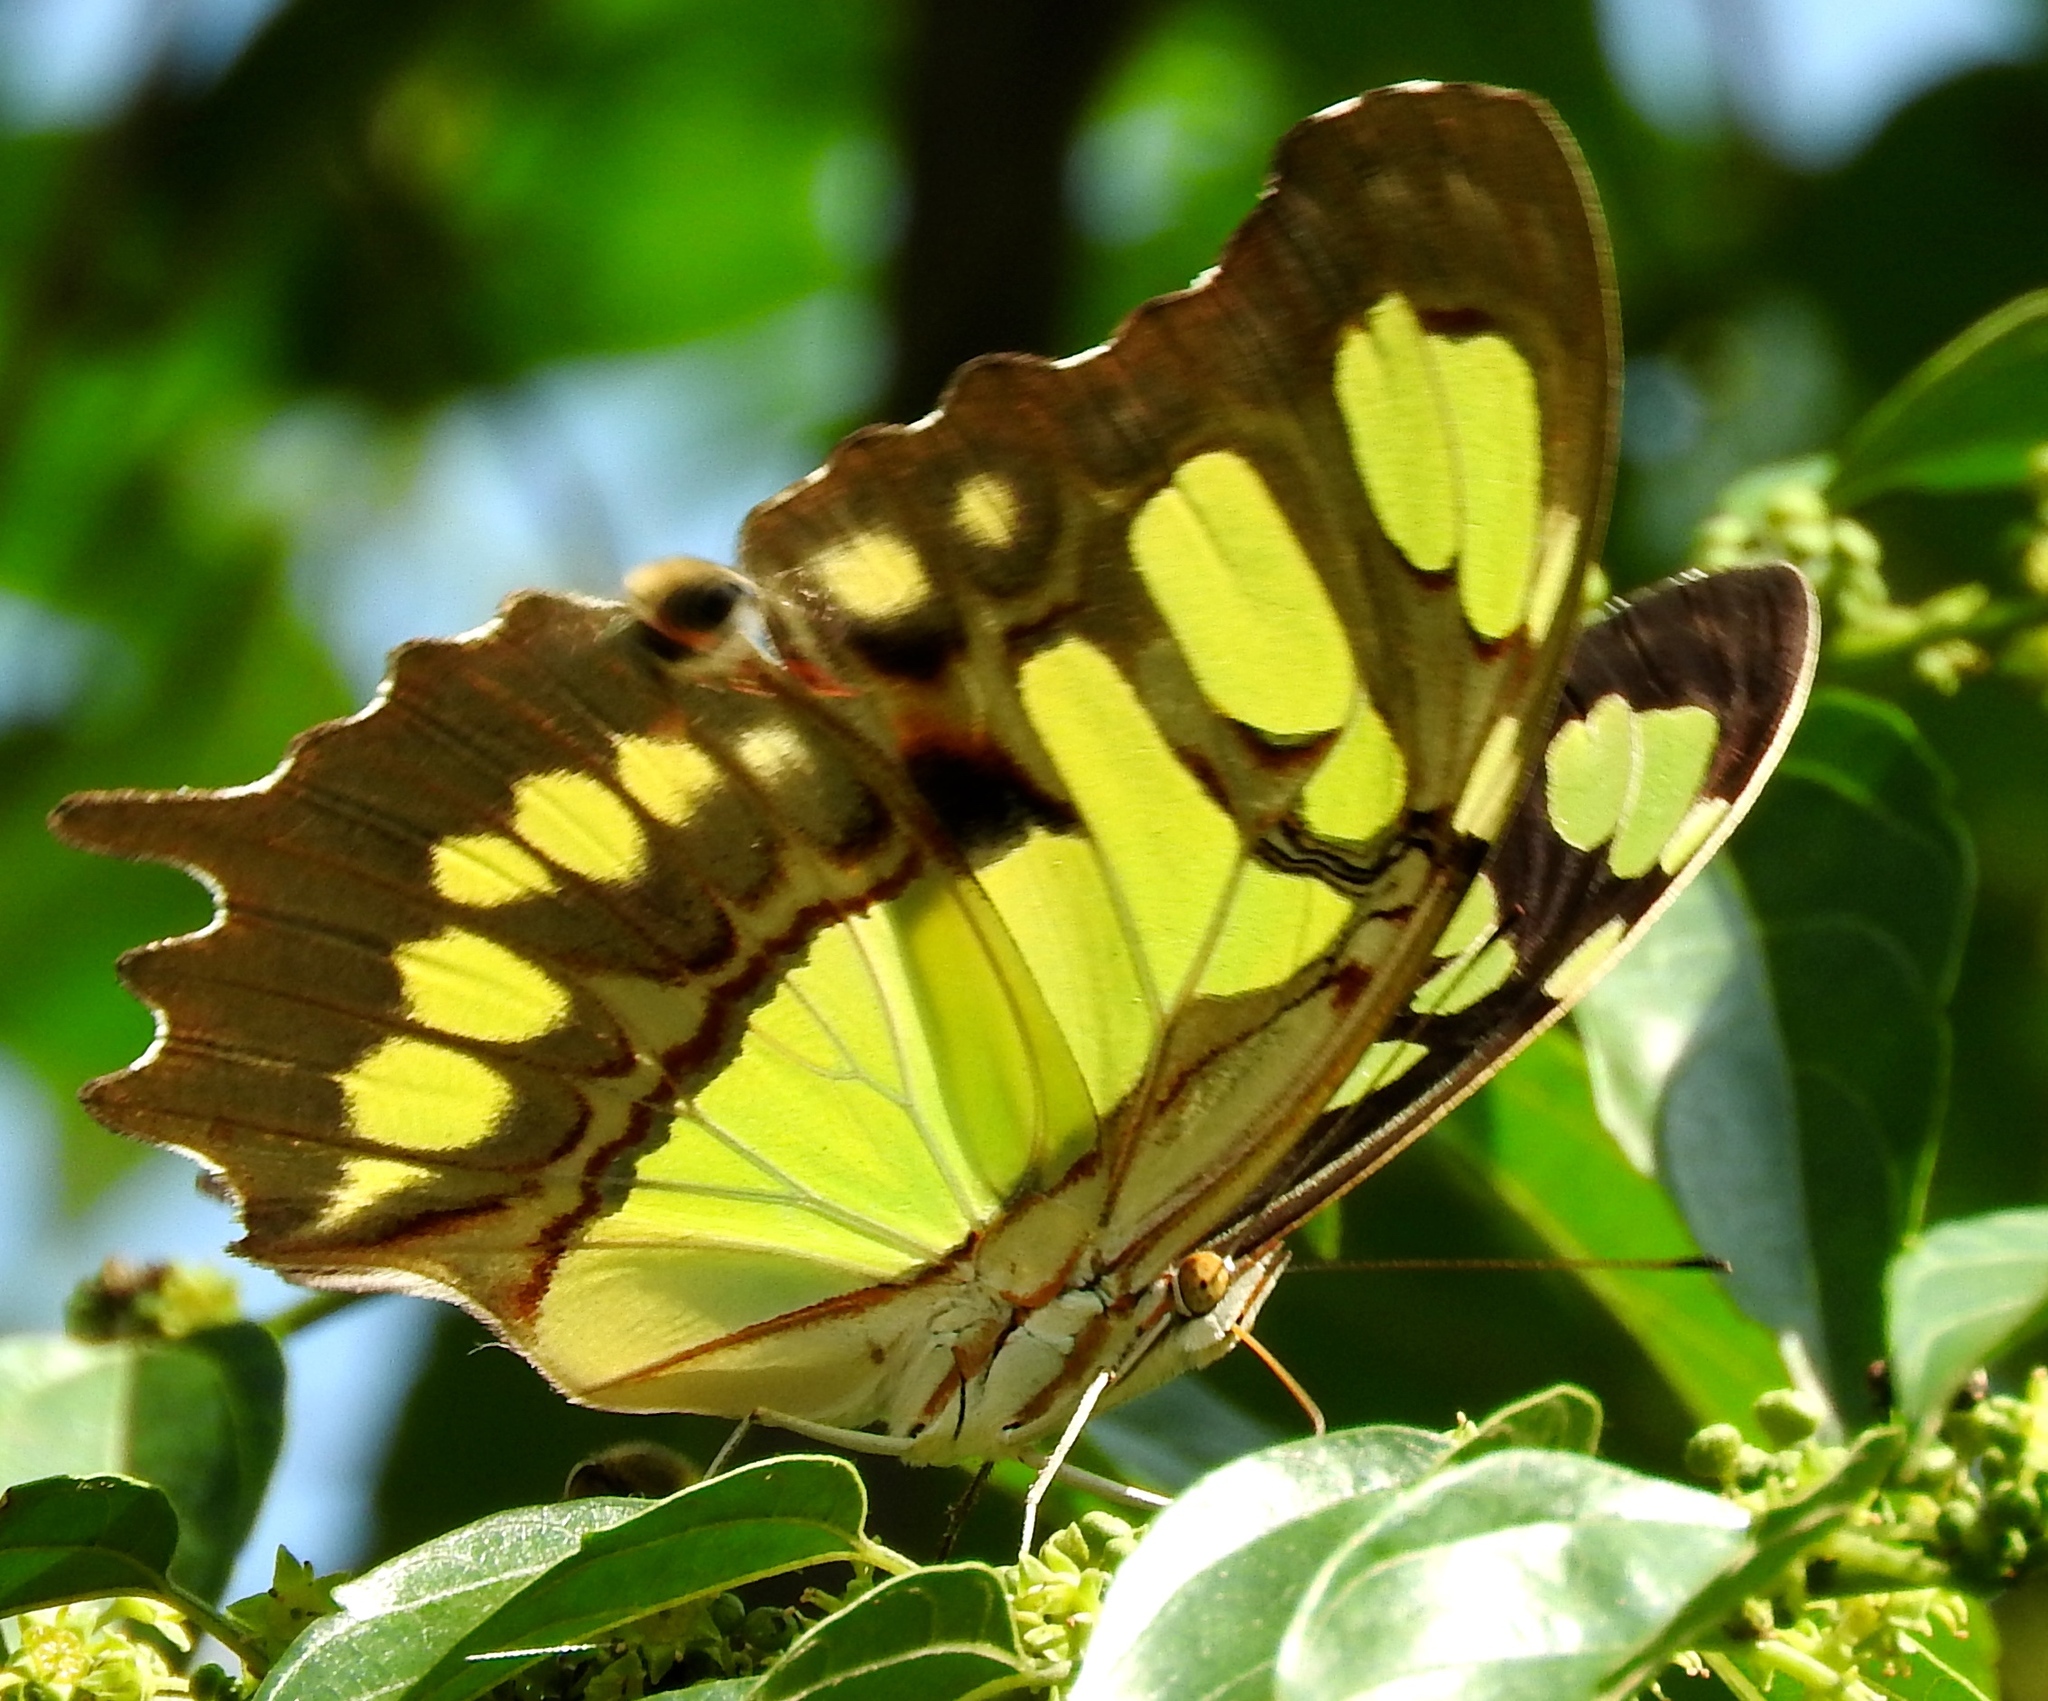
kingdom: Animalia
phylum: Arthropoda
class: Insecta
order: Lepidoptera
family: Nymphalidae
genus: Siproeta
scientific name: Siproeta stelenes
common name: Malachite
